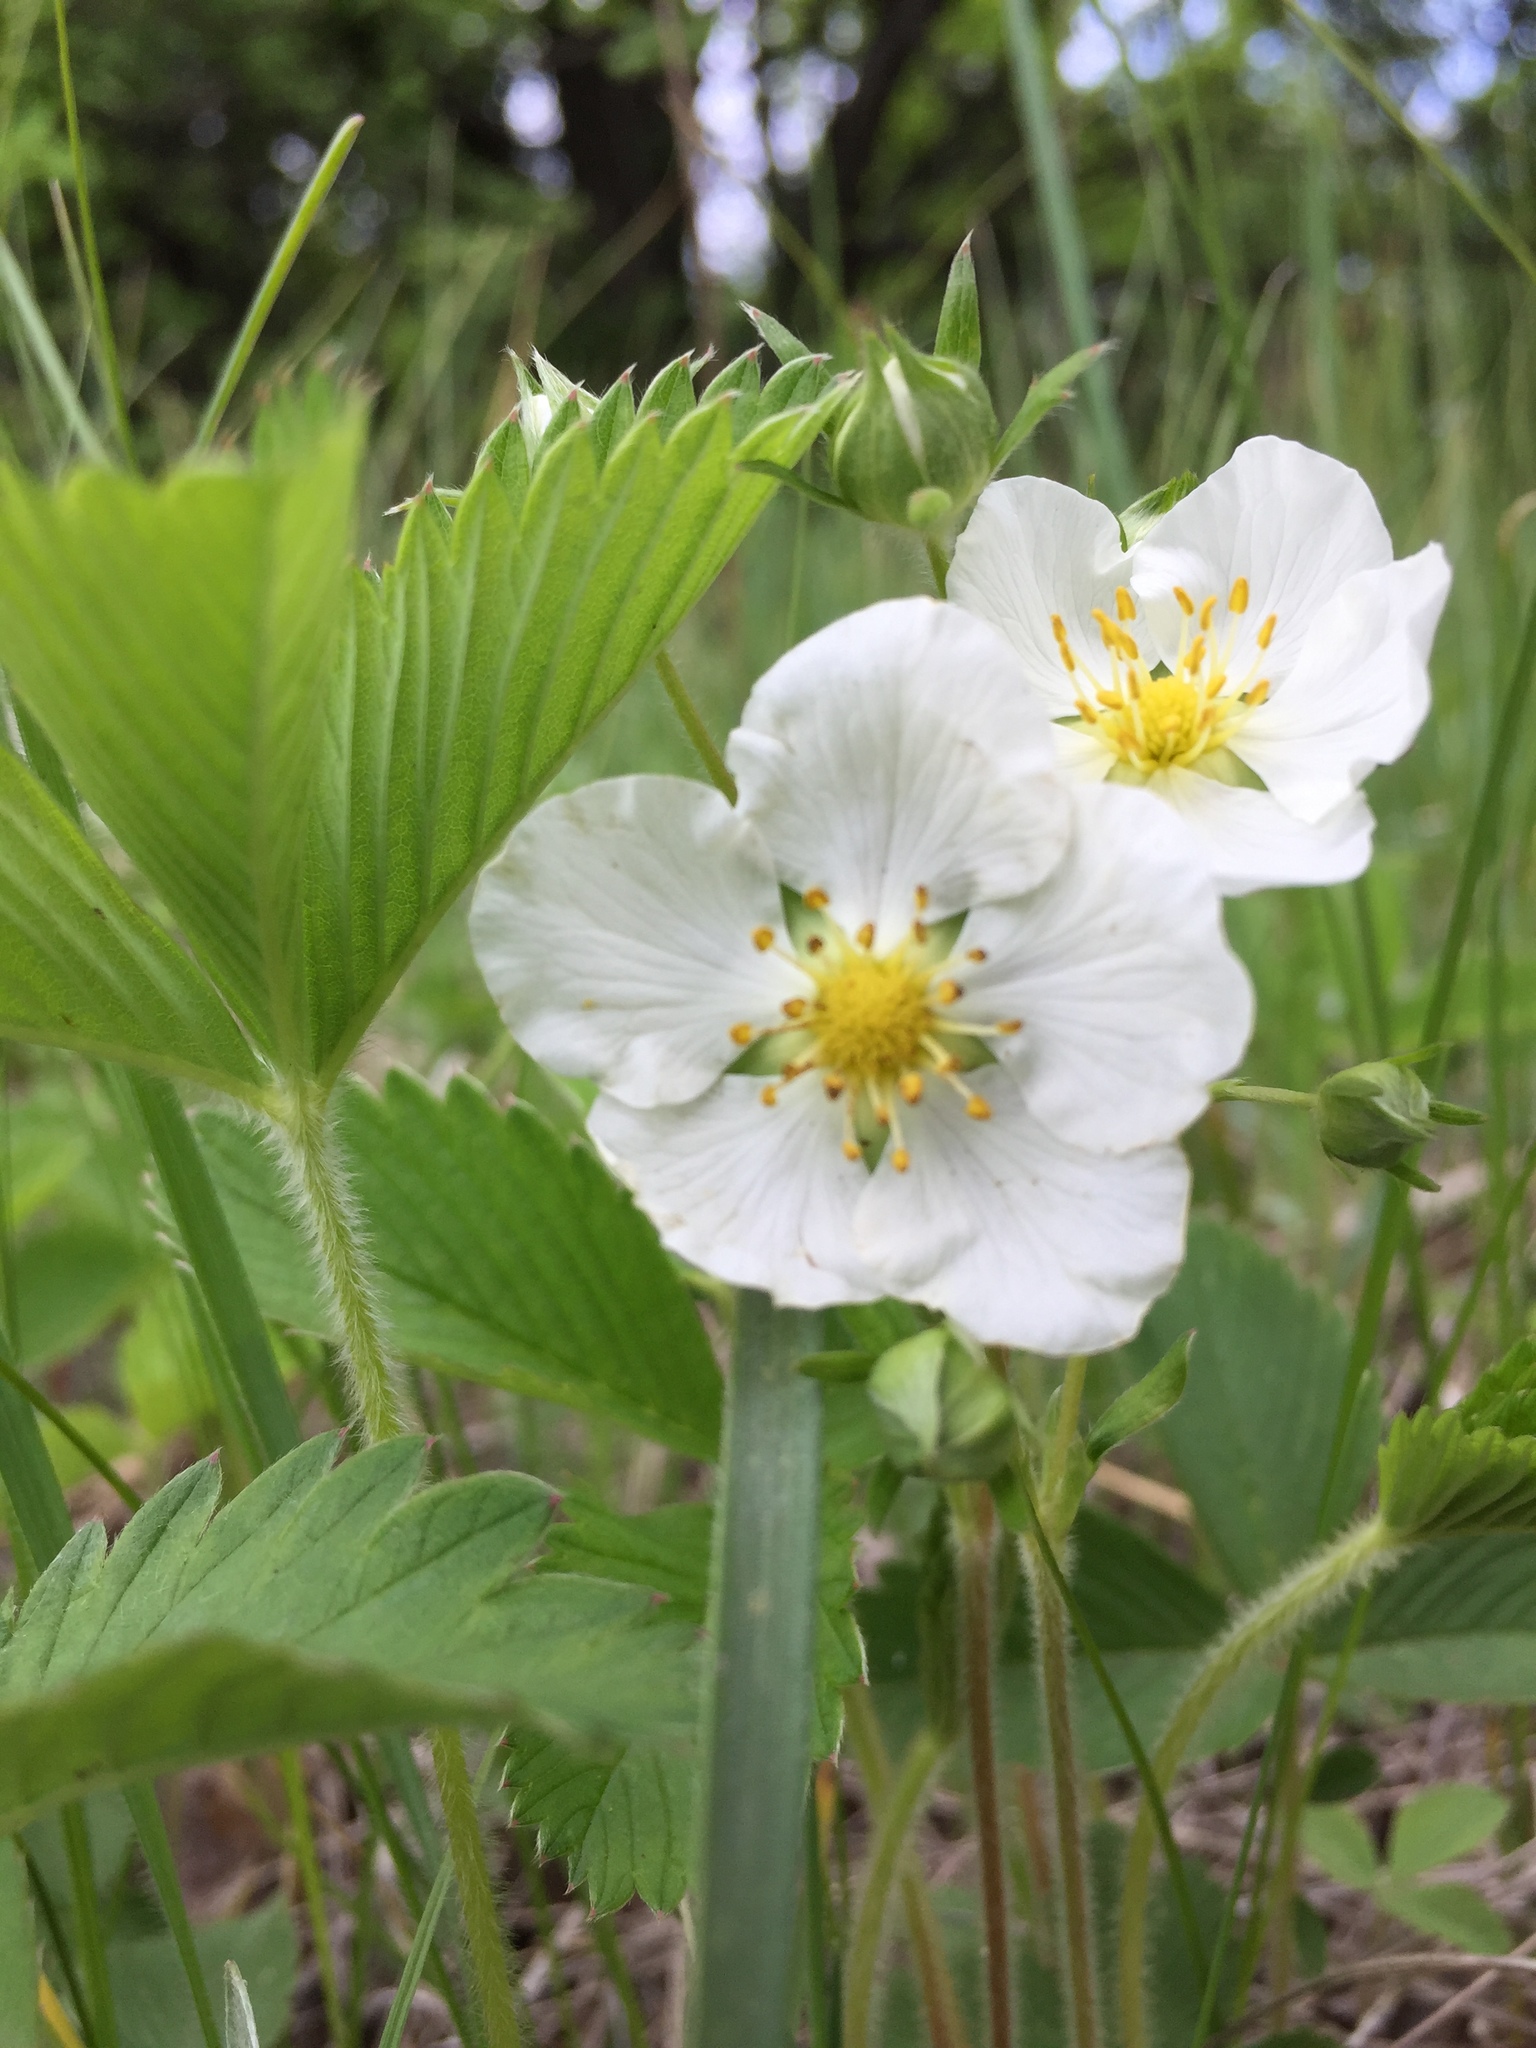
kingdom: Plantae
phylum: Tracheophyta
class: Magnoliopsida
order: Rosales
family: Rosaceae
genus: Fragaria
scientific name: Fragaria viridis
